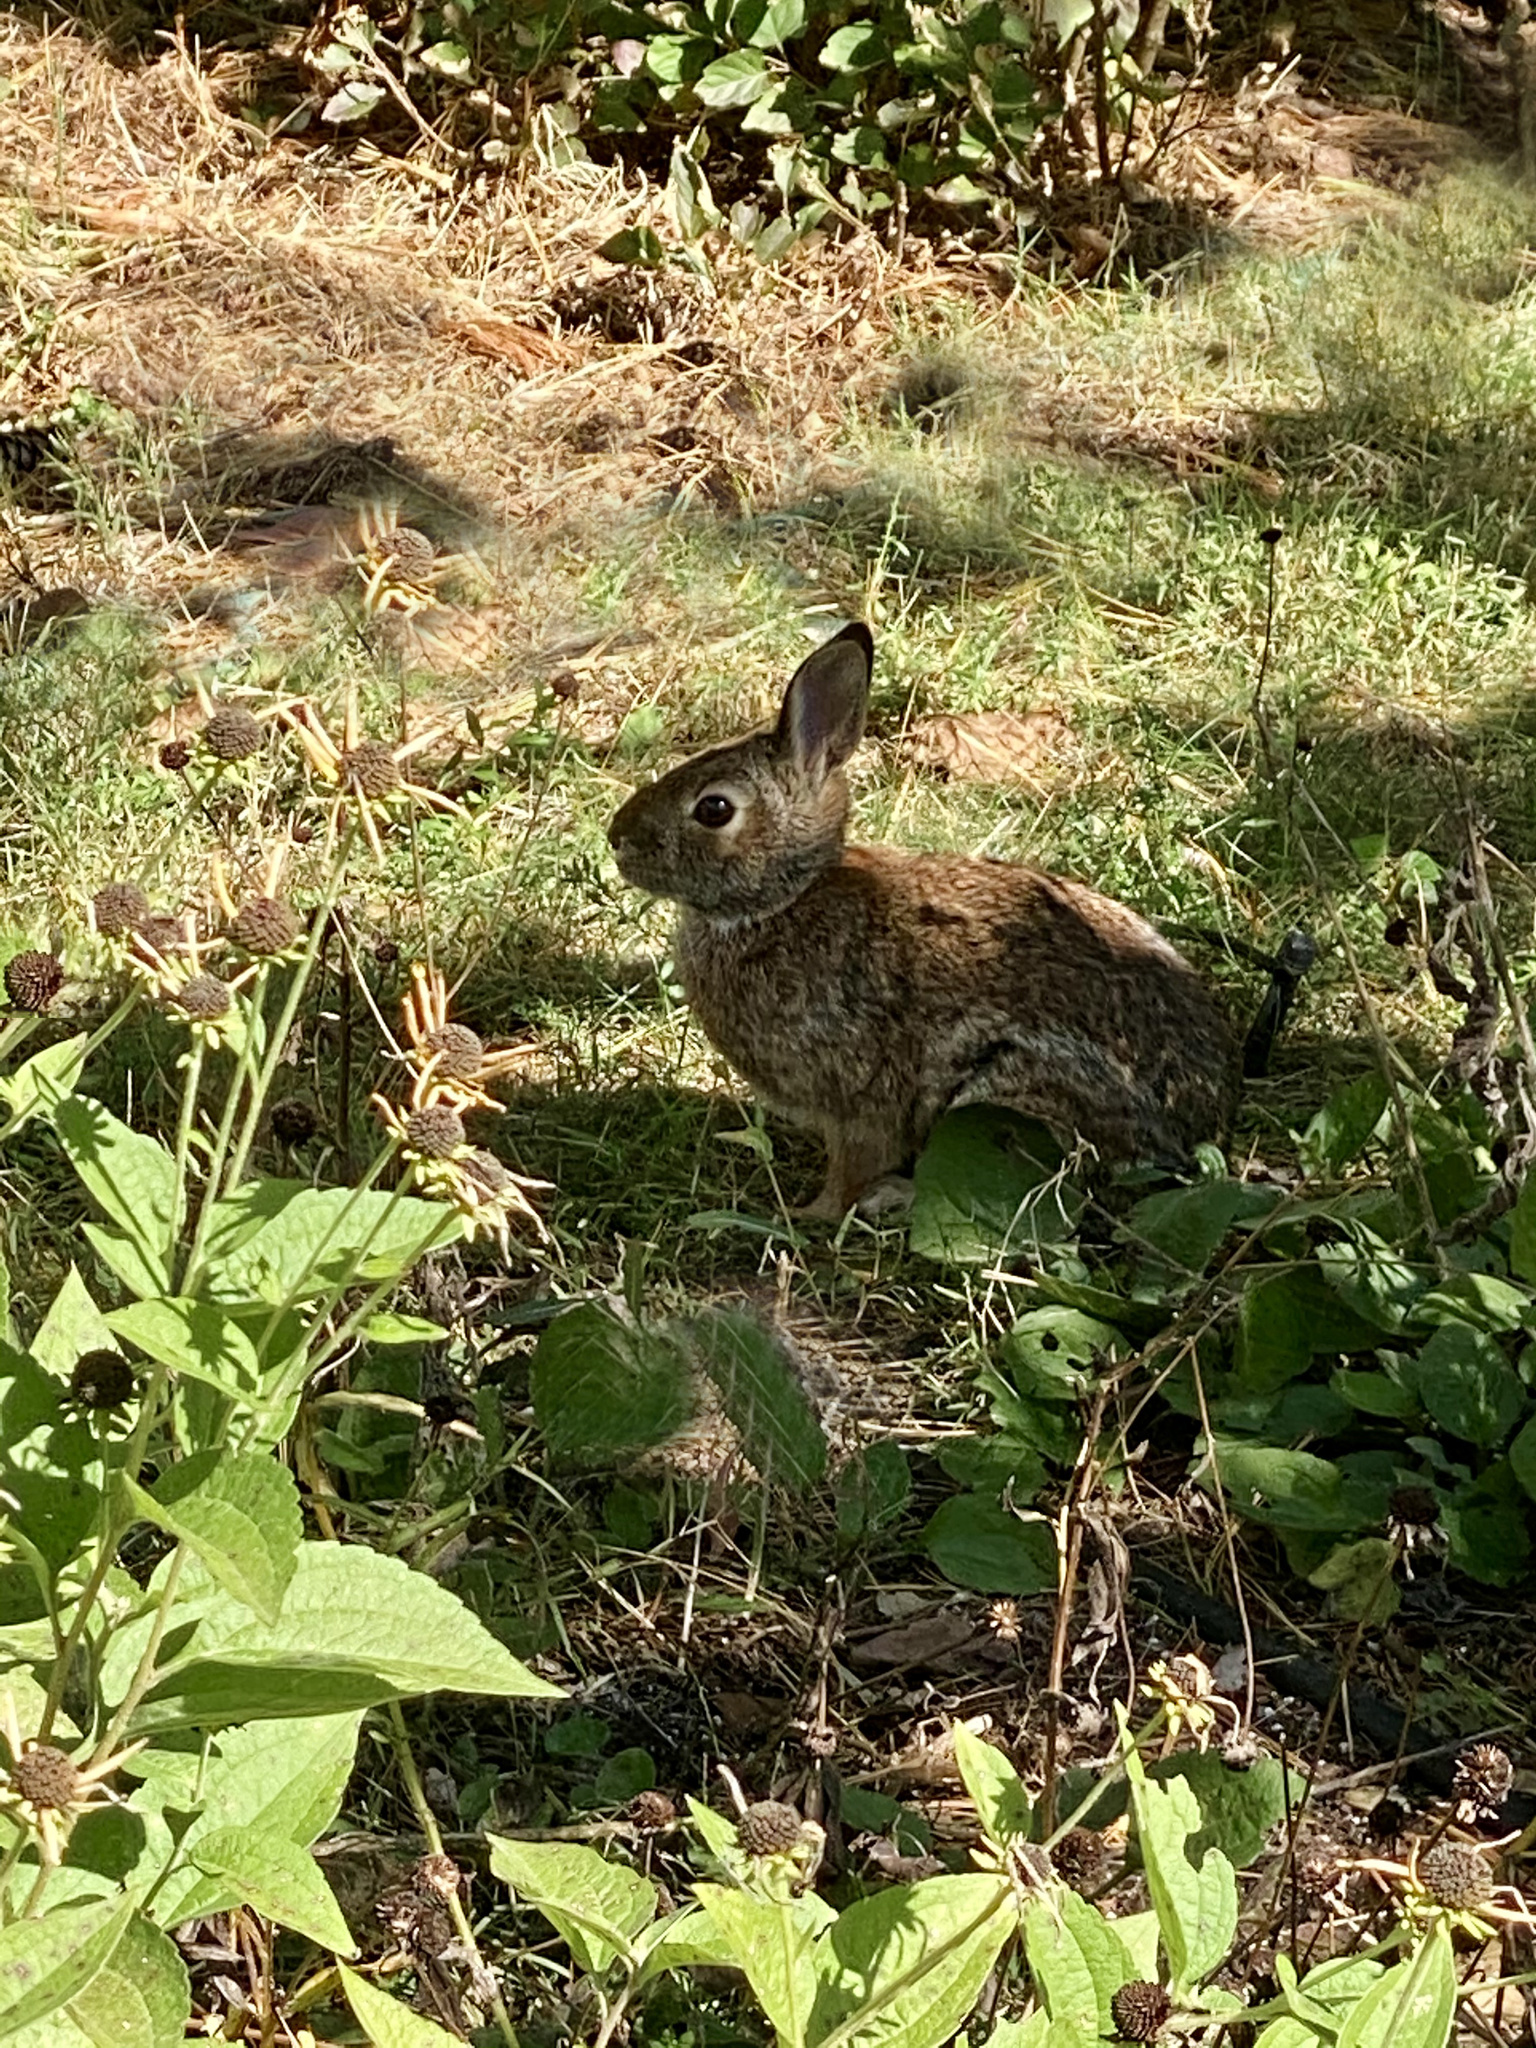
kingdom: Animalia
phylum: Chordata
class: Mammalia
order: Lagomorpha
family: Leporidae
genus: Sylvilagus
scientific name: Sylvilagus floridanus
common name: Eastern cottontail
